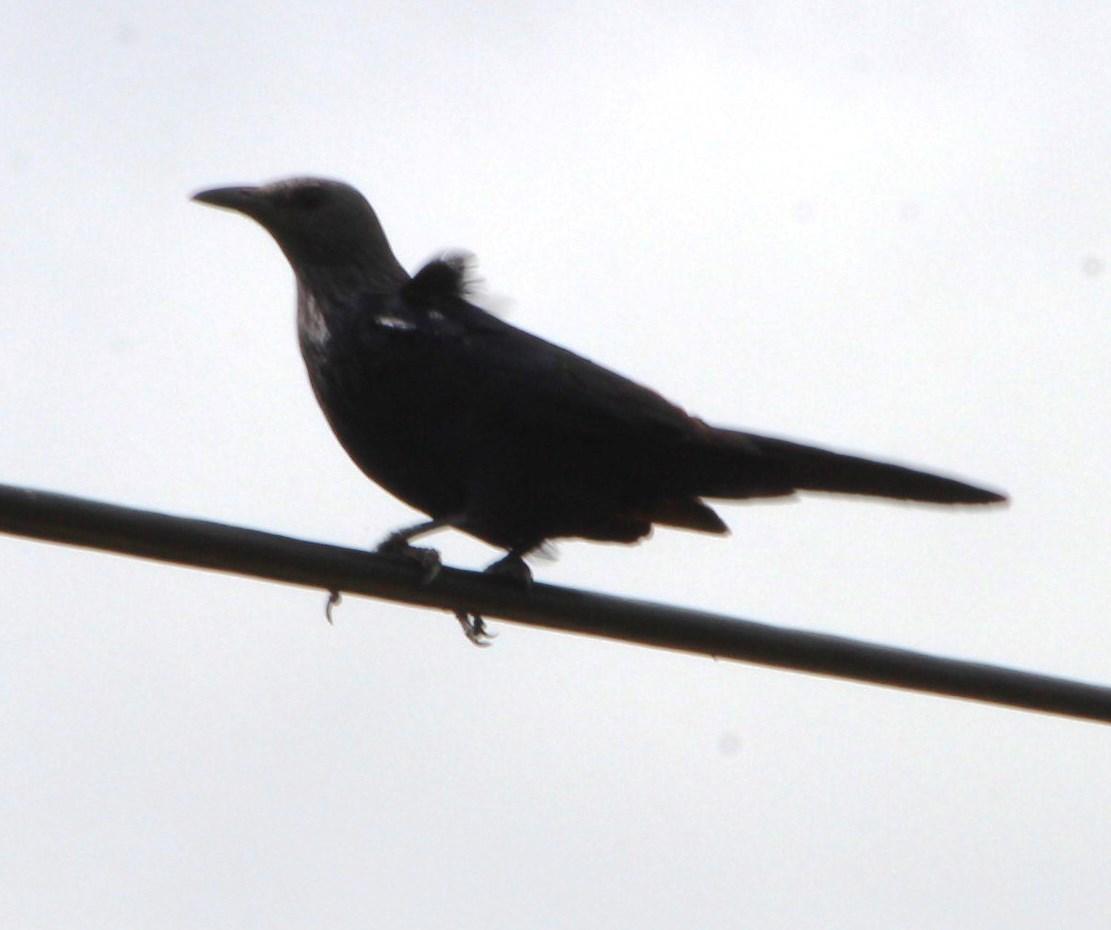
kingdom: Animalia
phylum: Chordata
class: Aves
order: Passeriformes
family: Sturnidae
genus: Onychognathus
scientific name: Onychognathus morio
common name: Red-winged starling
